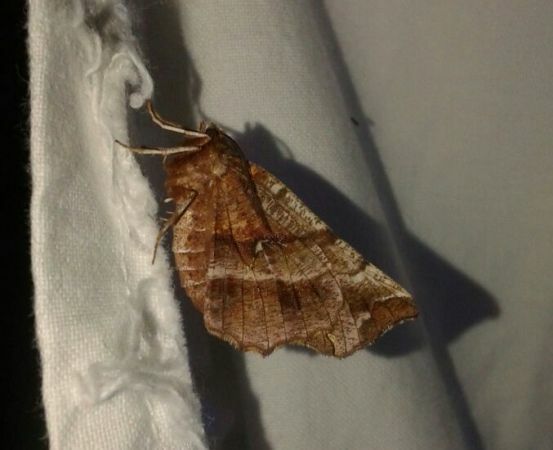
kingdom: Animalia
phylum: Arthropoda
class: Insecta
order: Lepidoptera
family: Geometridae
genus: Selenia
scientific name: Selenia dentaria
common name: Early thorn
